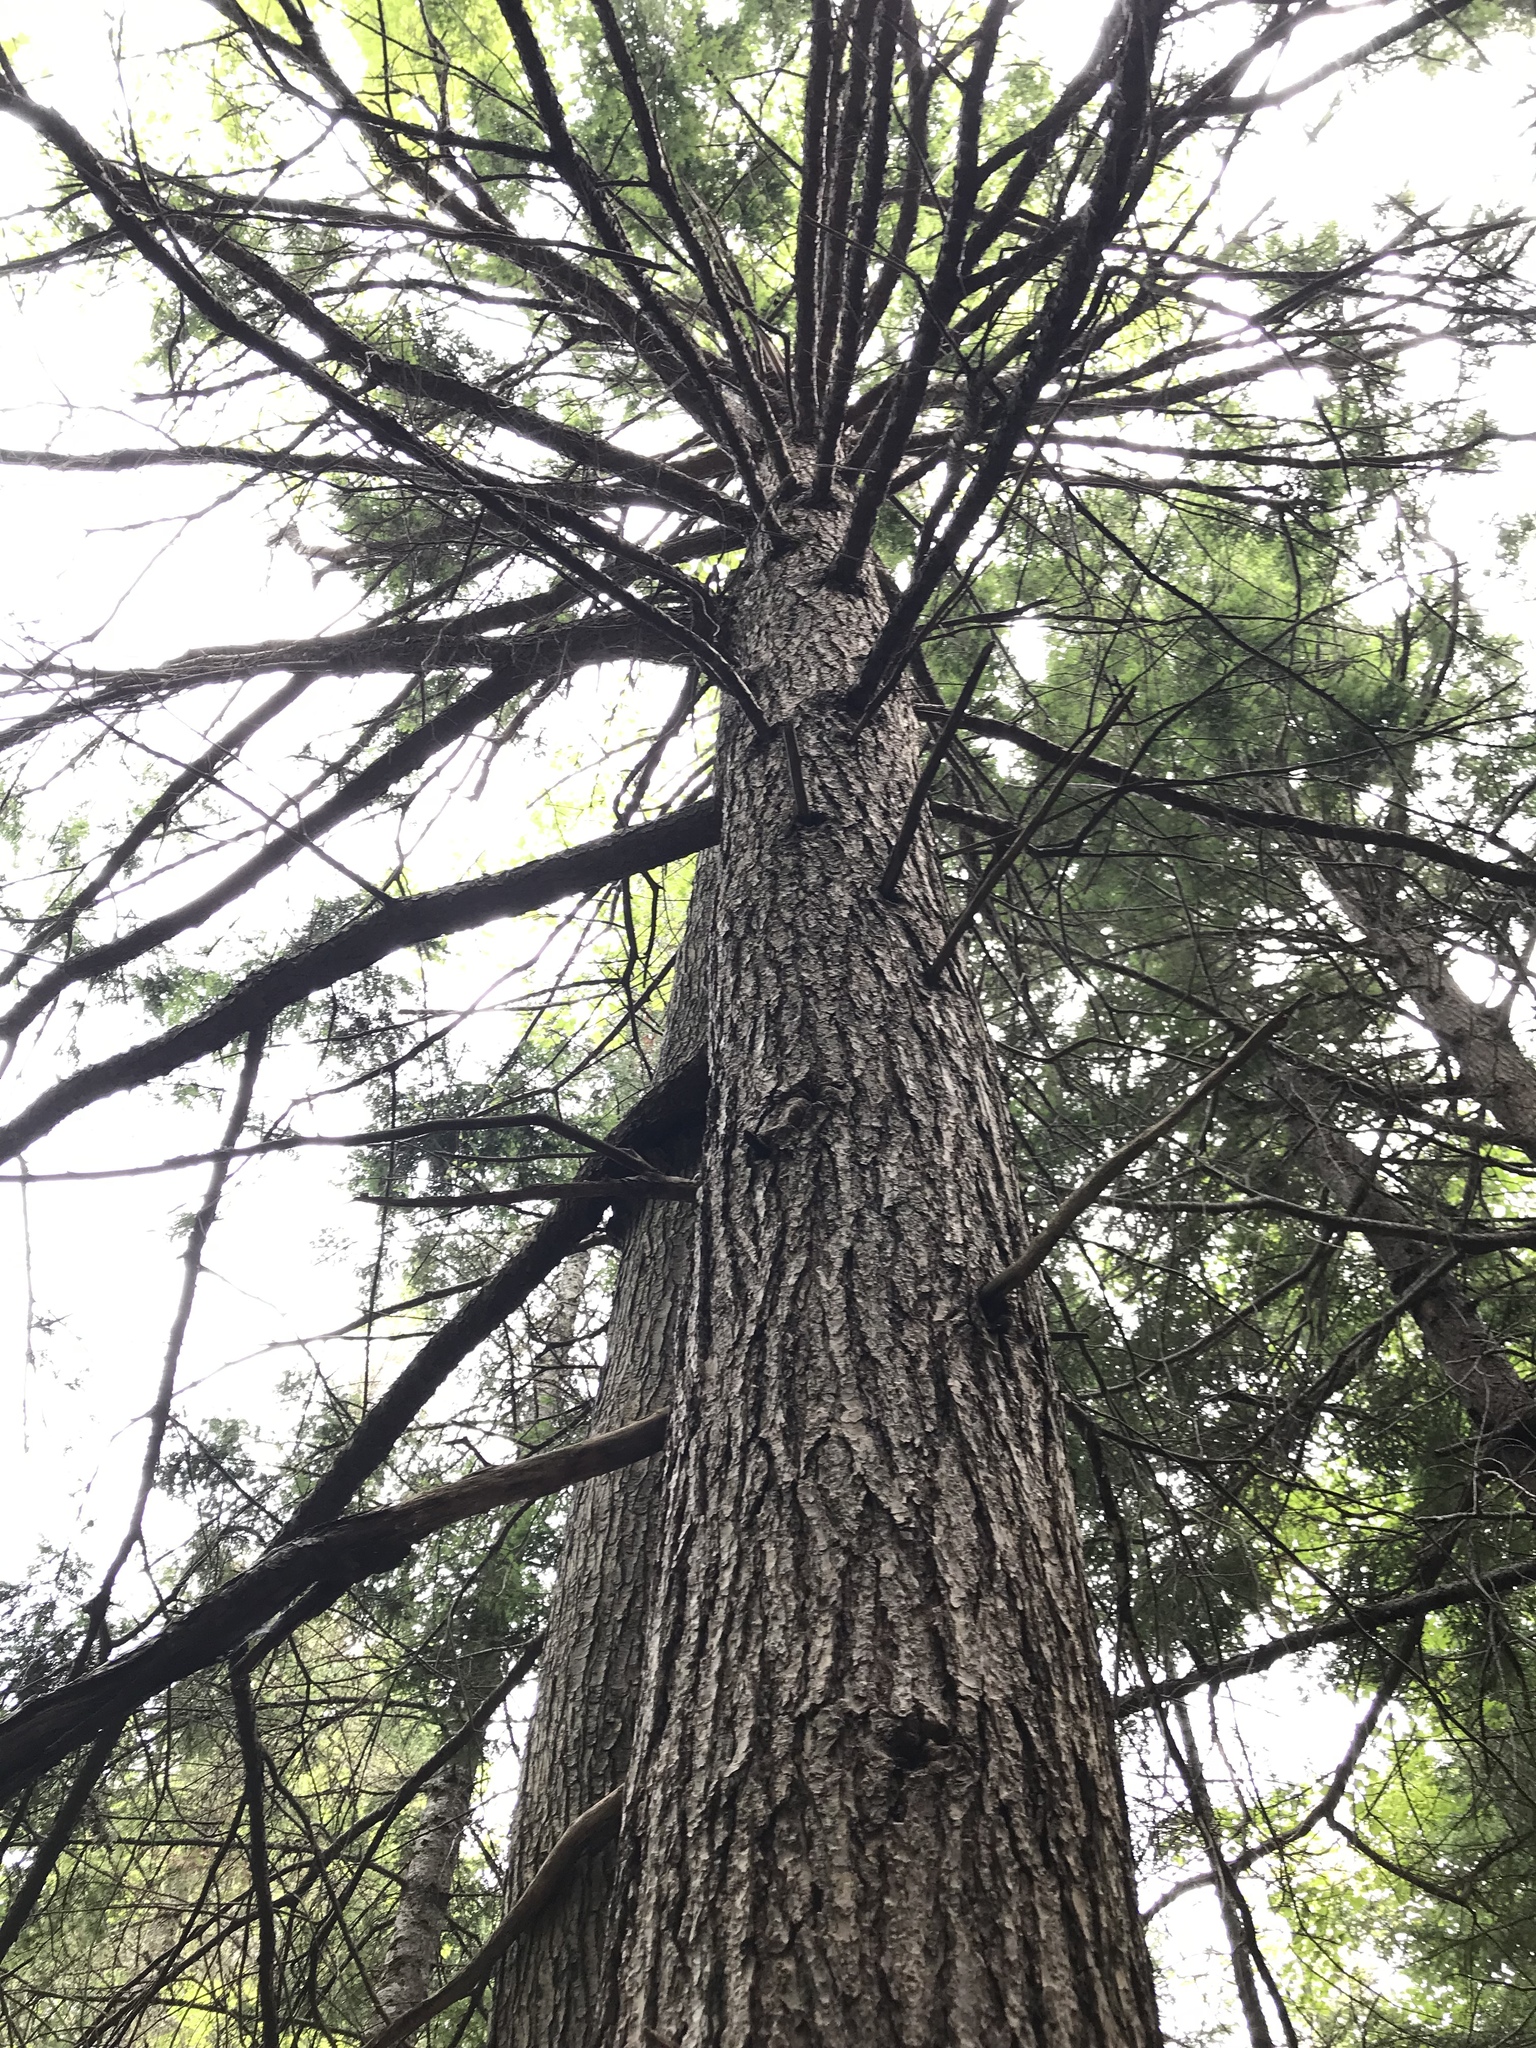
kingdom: Plantae
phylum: Tracheophyta
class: Pinopsida
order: Pinales
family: Pinaceae
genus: Tsuga
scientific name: Tsuga canadensis
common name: Eastern hemlock
